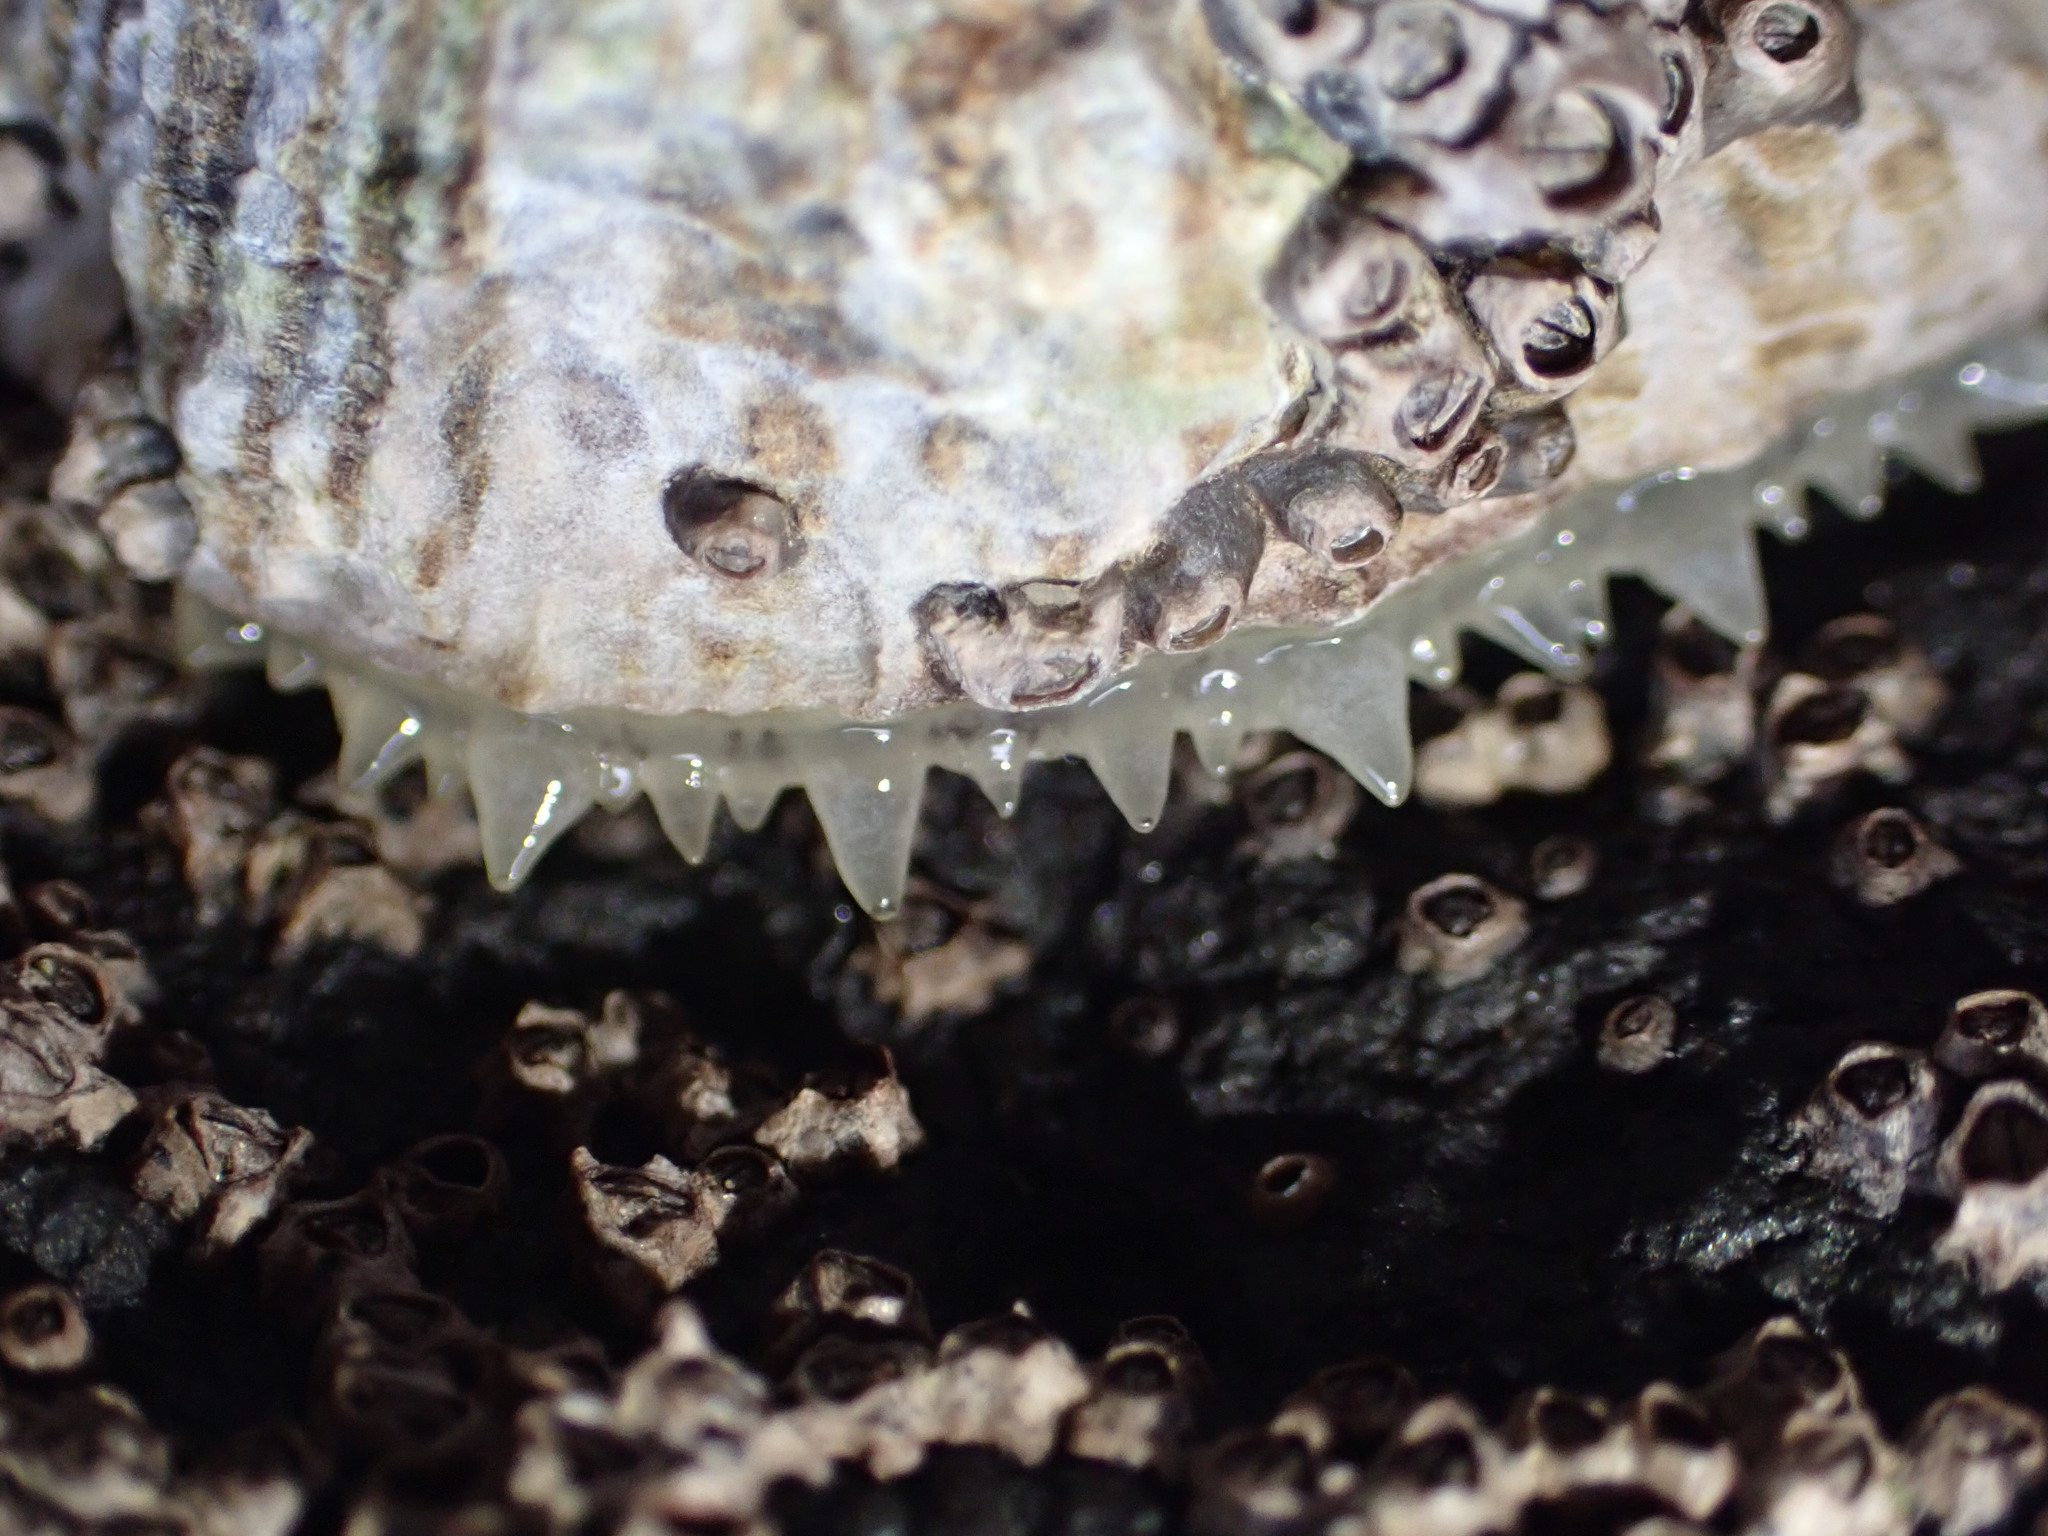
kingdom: Animalia
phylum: Mollusca
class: Gastropoda
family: Nacellidae
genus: Cellana
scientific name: Cellana ornata
